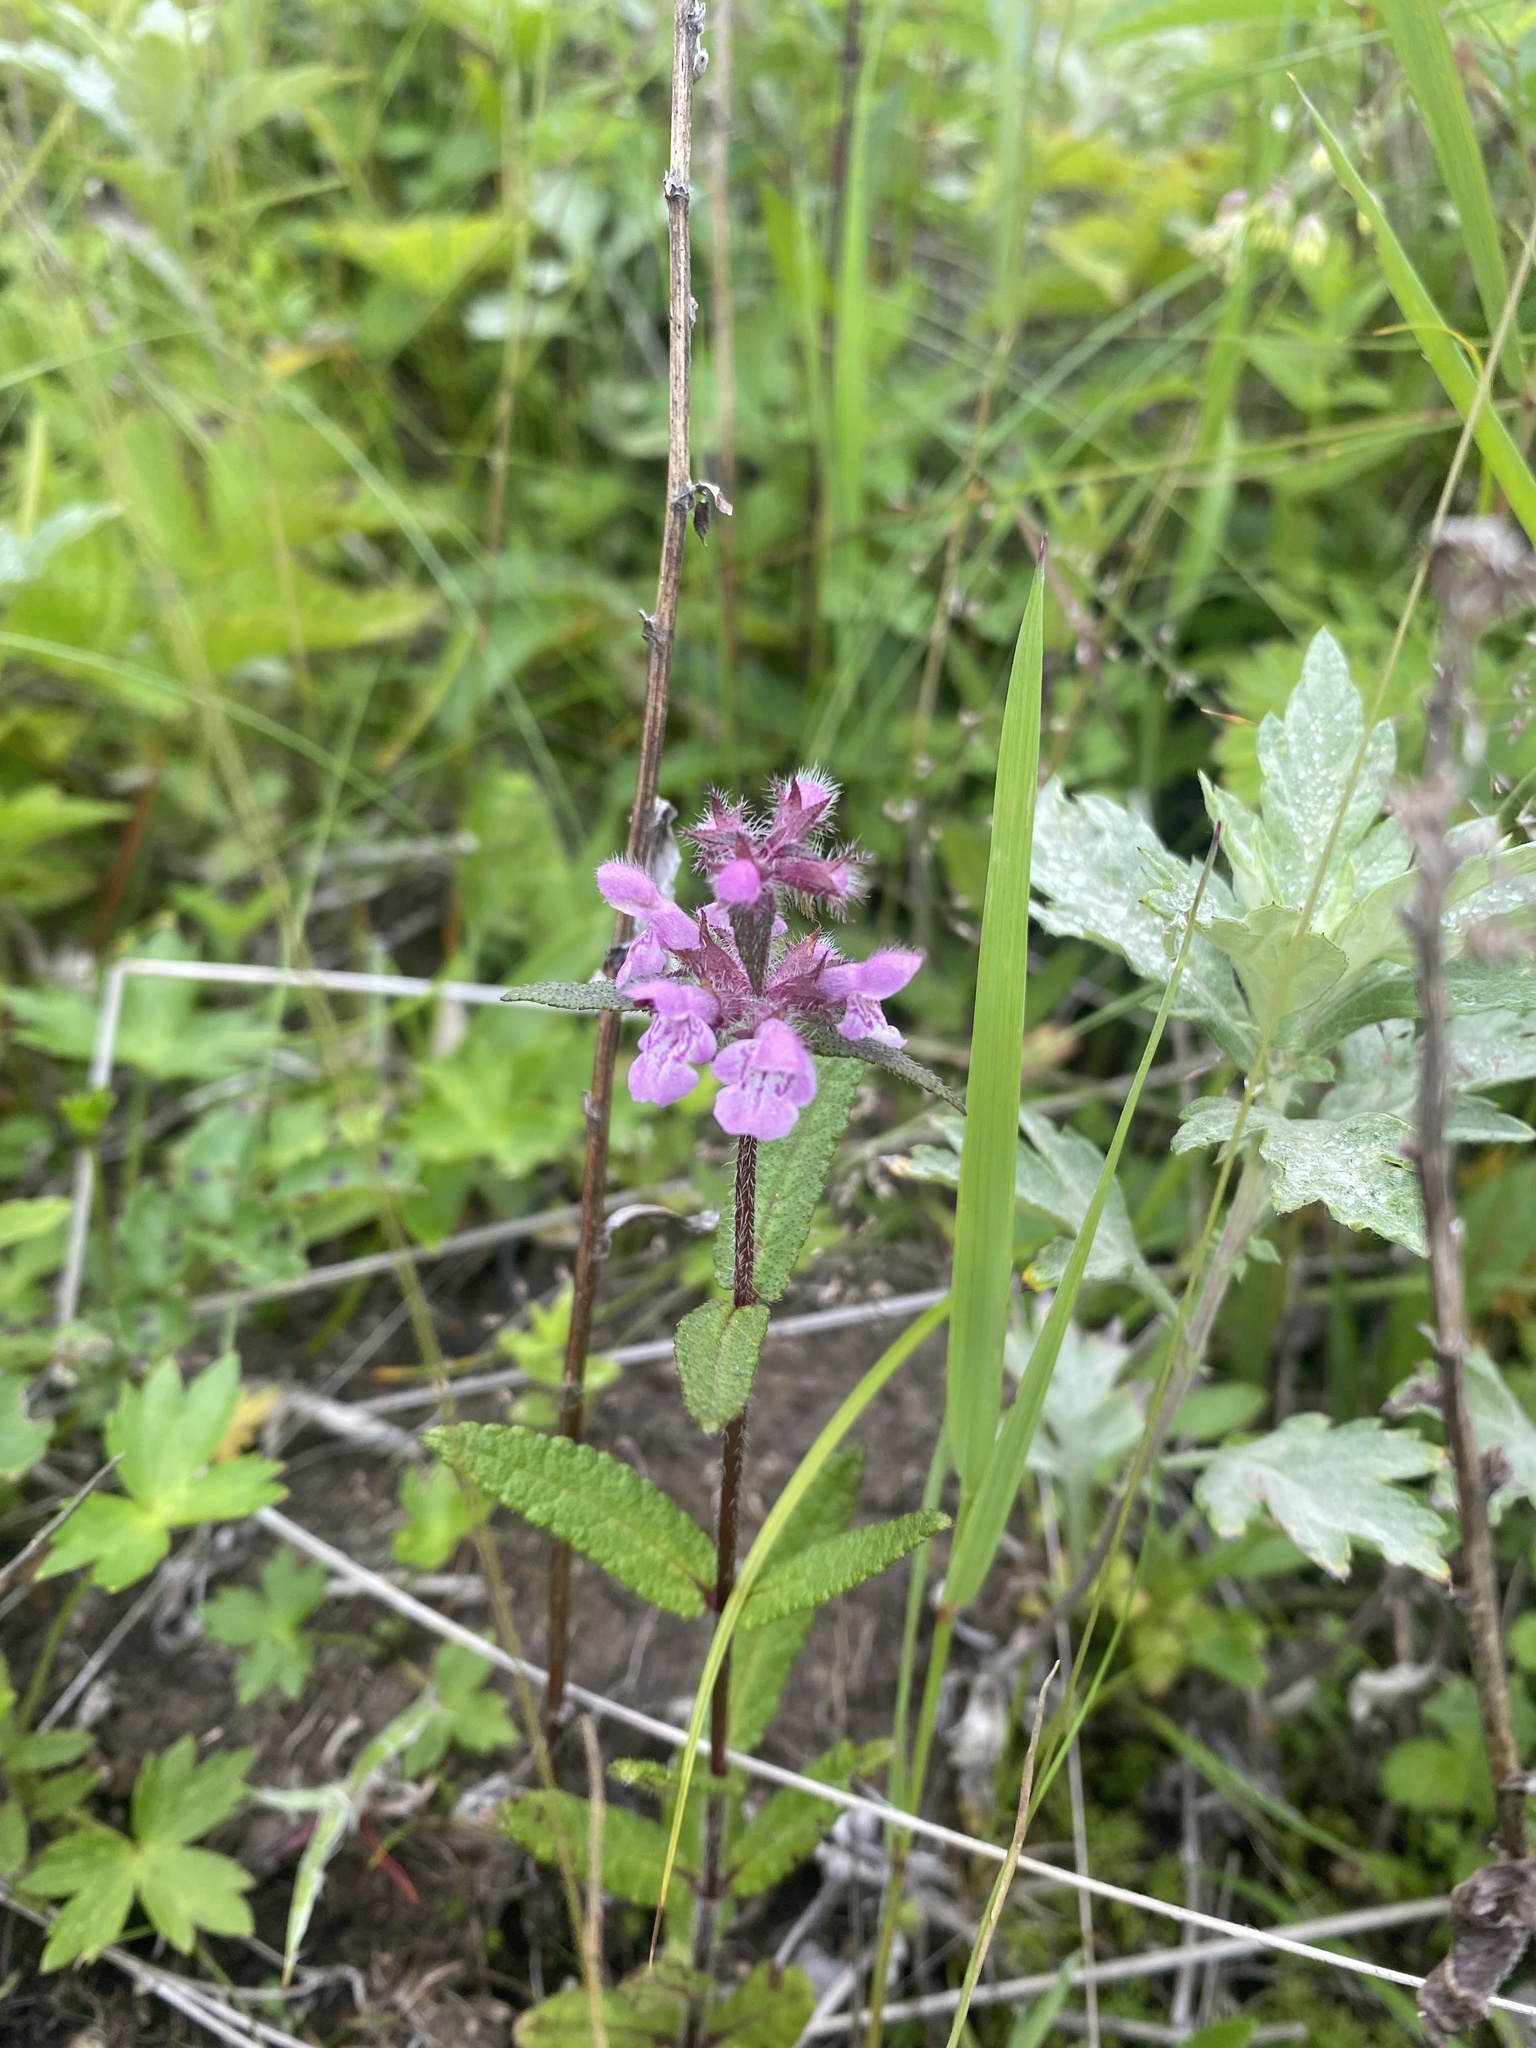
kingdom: Plantae
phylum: Tracheophyta
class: Magnoliopsida
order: Lamiales
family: Lamiaceae
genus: Stachys
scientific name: Stachys aspera
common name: Hyssopleaf hedgenettle
